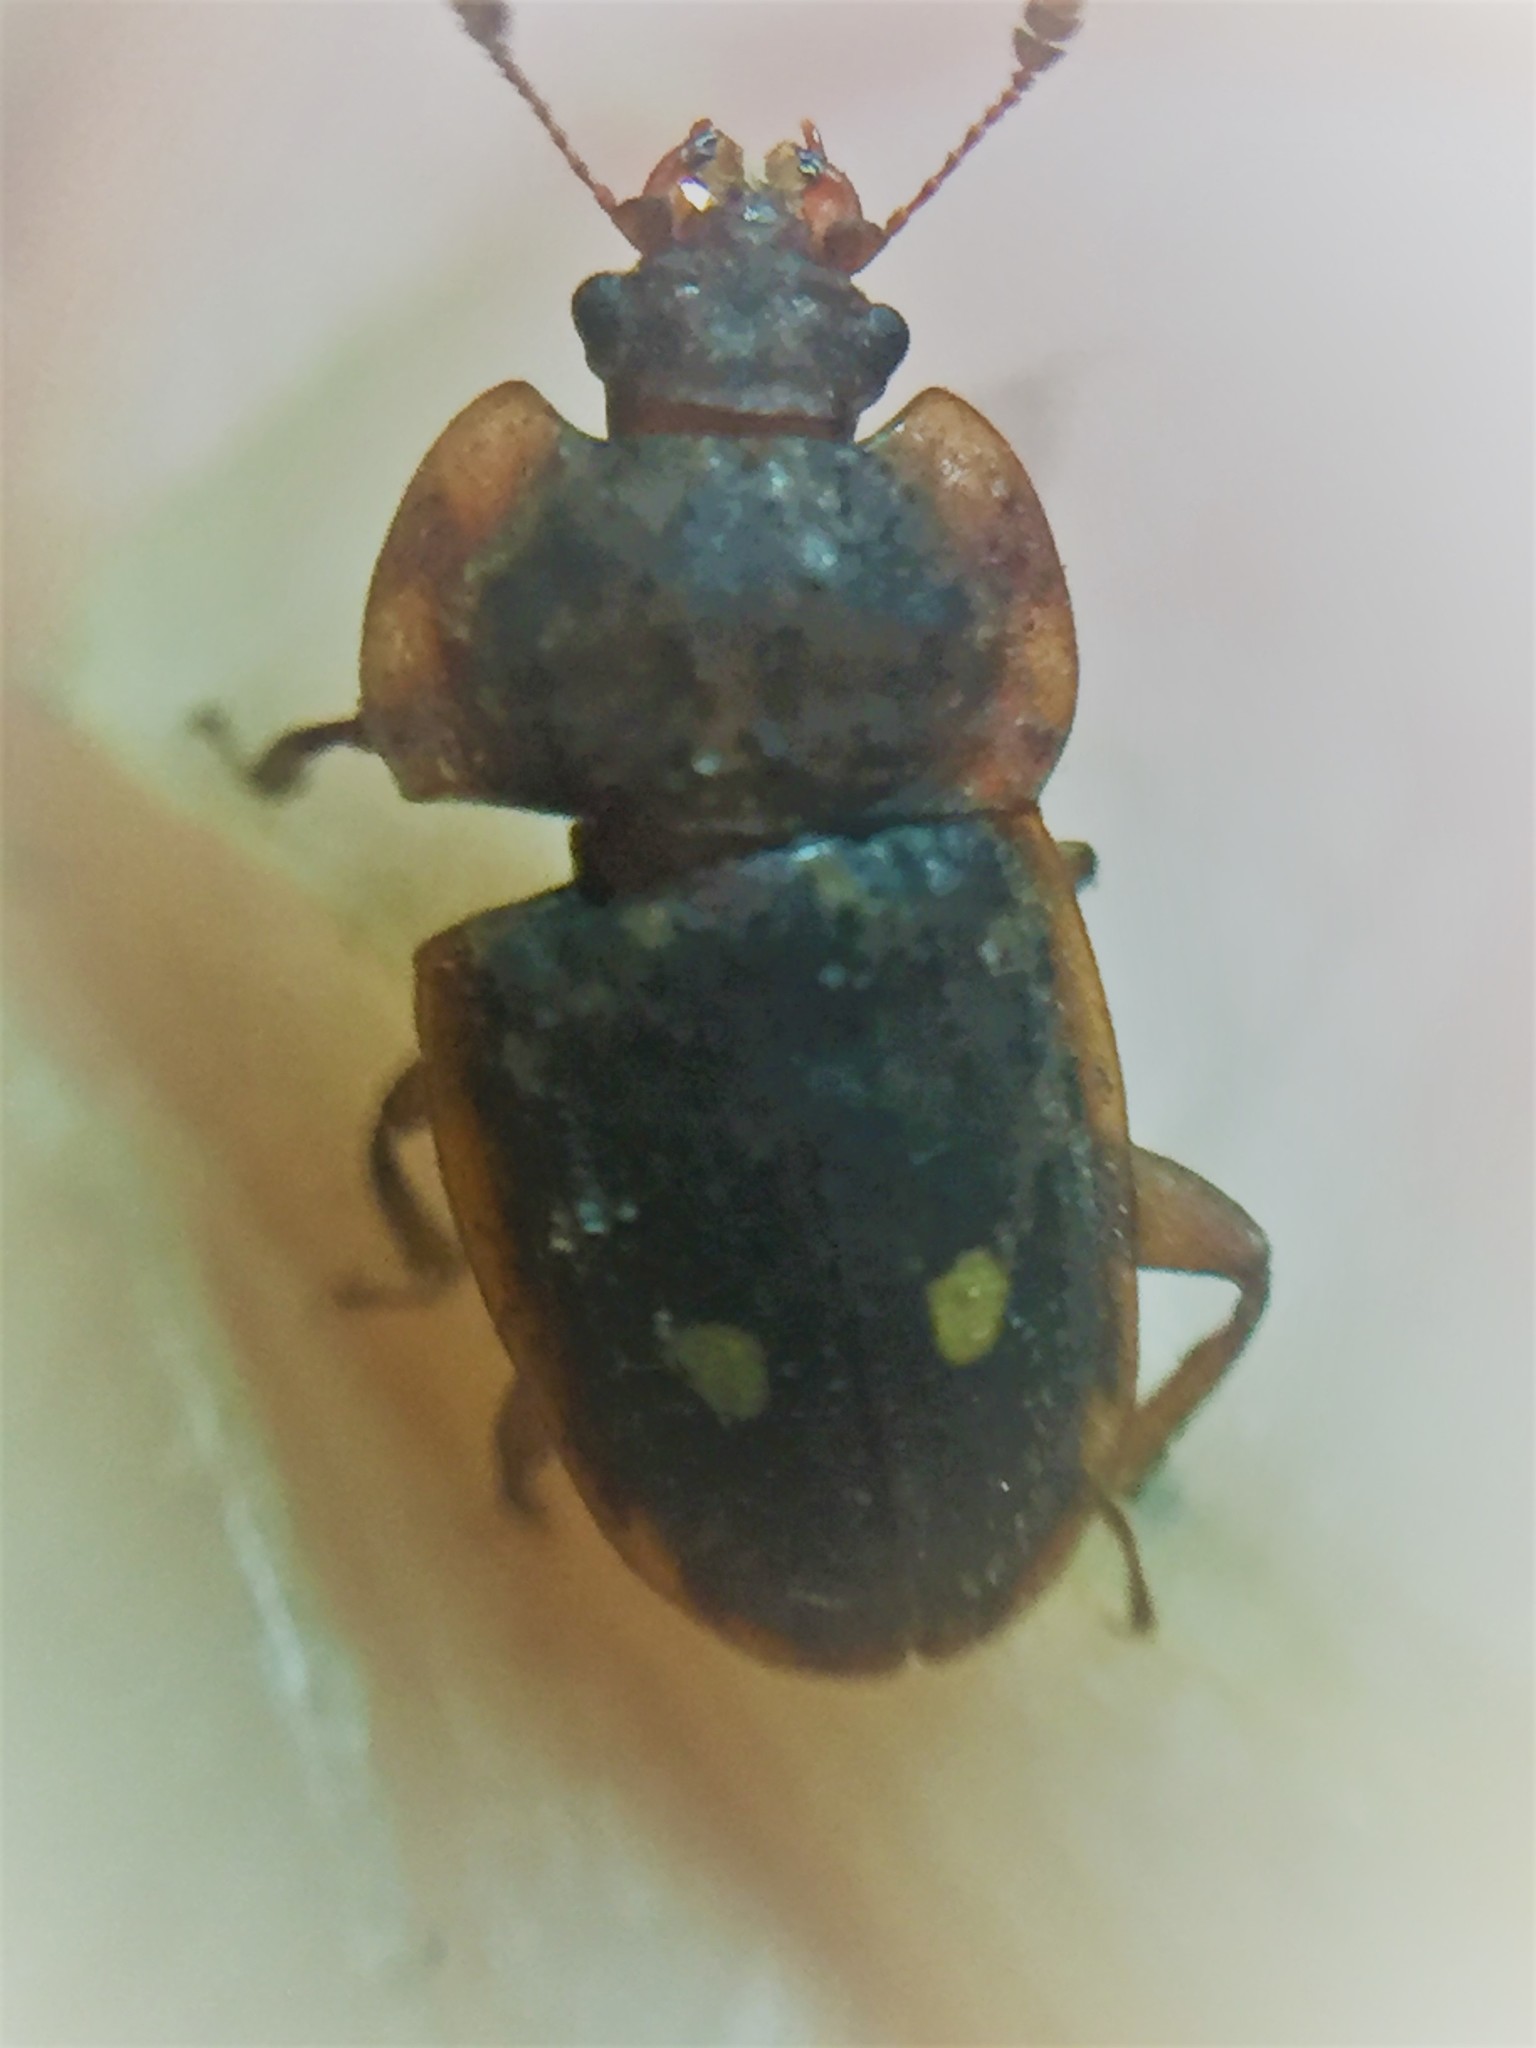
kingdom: Animalia
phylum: Arthropoda
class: Insecta
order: Coleoptera
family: Nitidulidae
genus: Soronia
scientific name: Soronia
